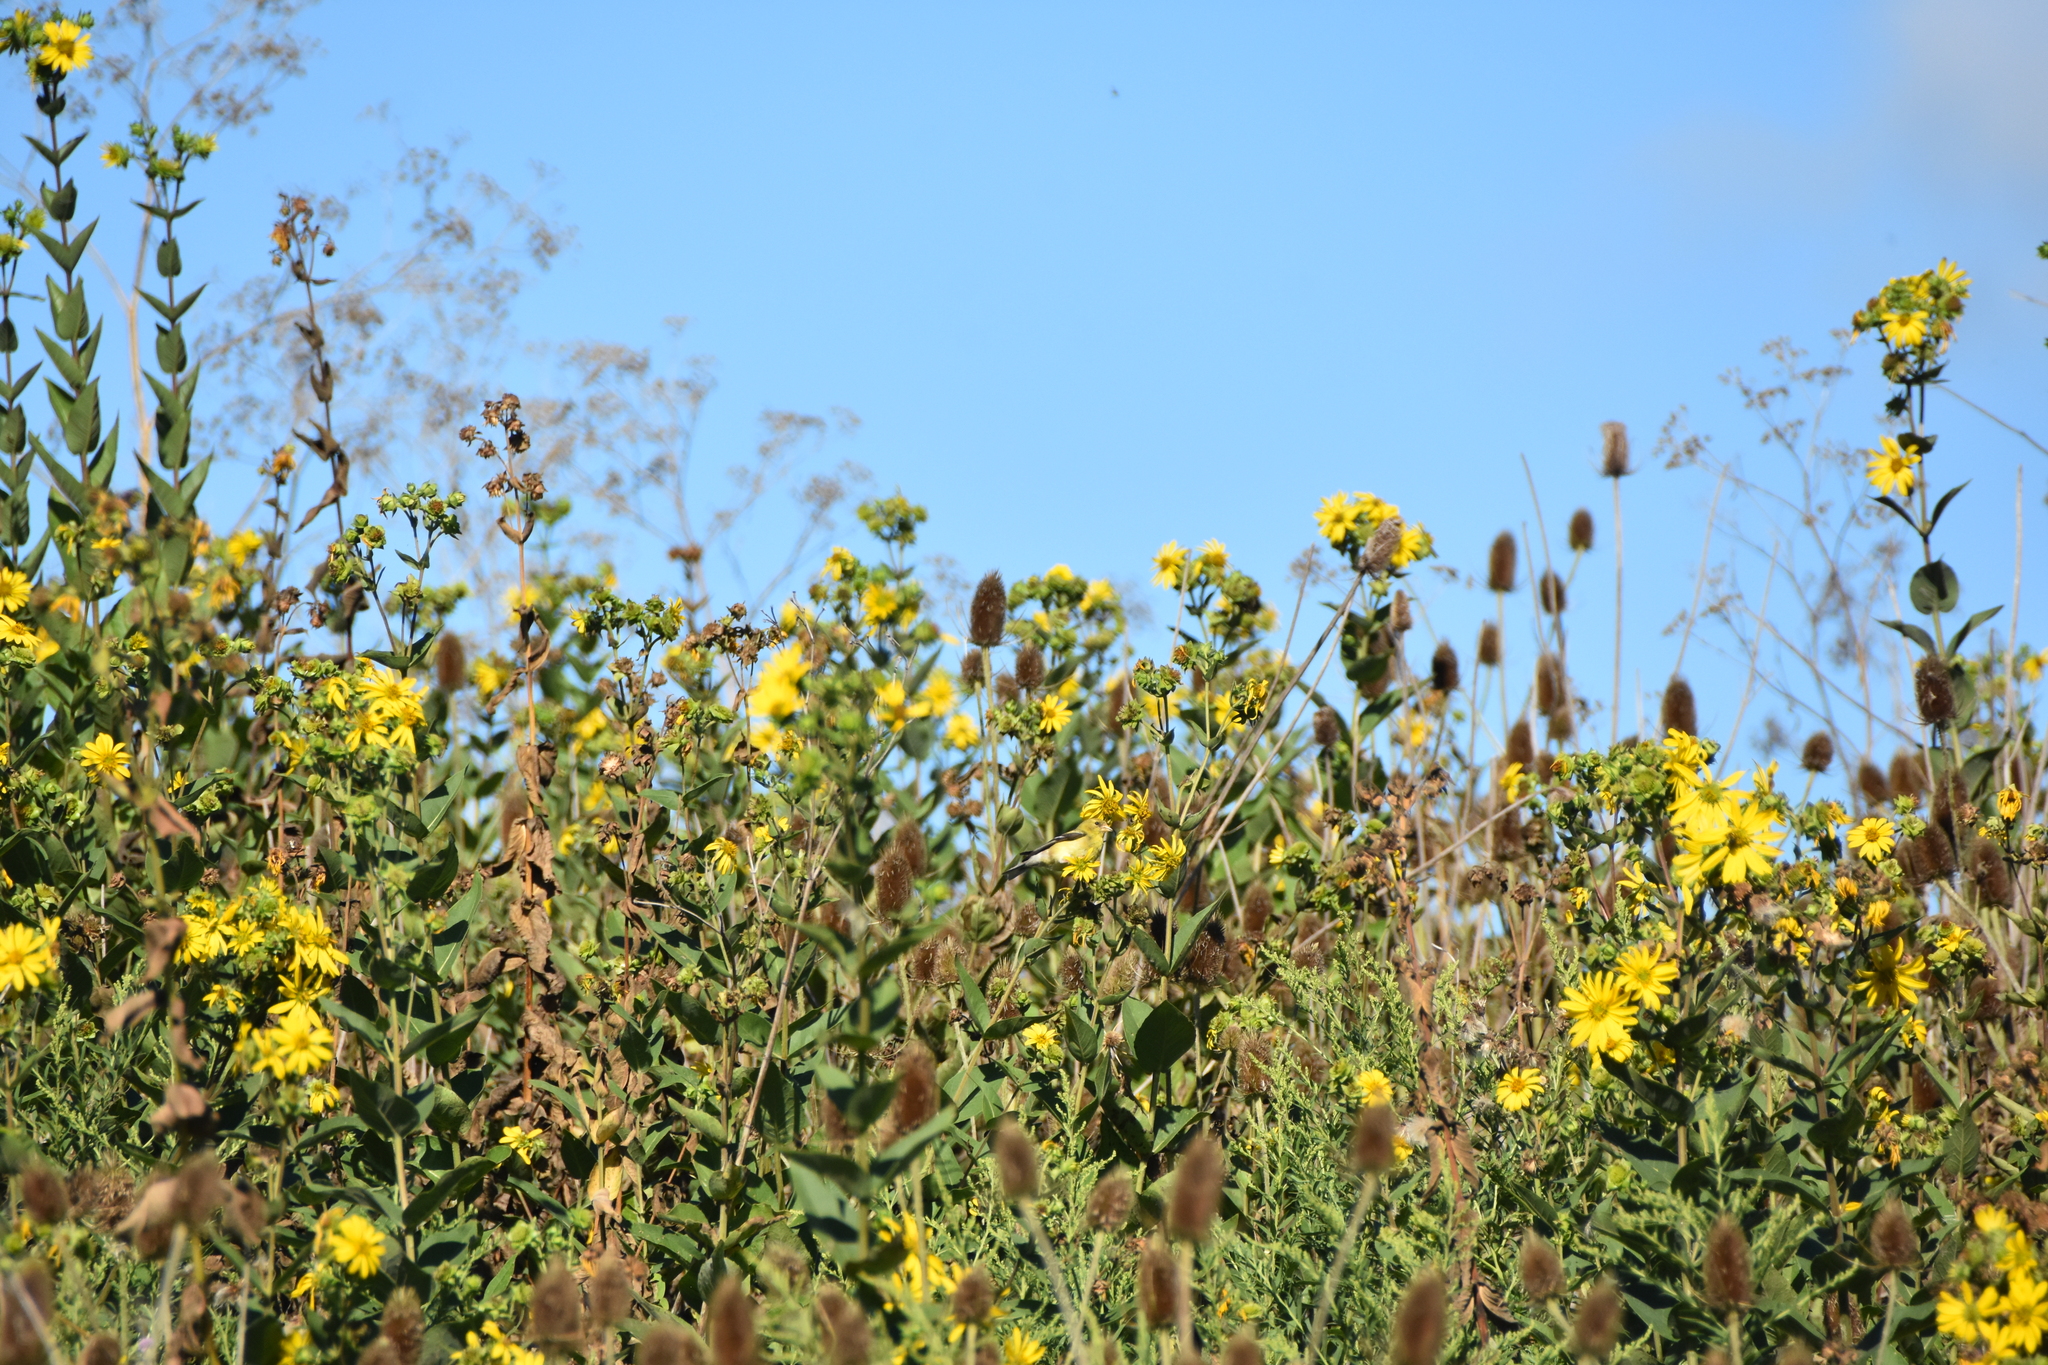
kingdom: Animalia
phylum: Chordata
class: Aves
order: Passeriformes
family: Fringillidae
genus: Spinus
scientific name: Spinus tristis
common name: American goldfinch
